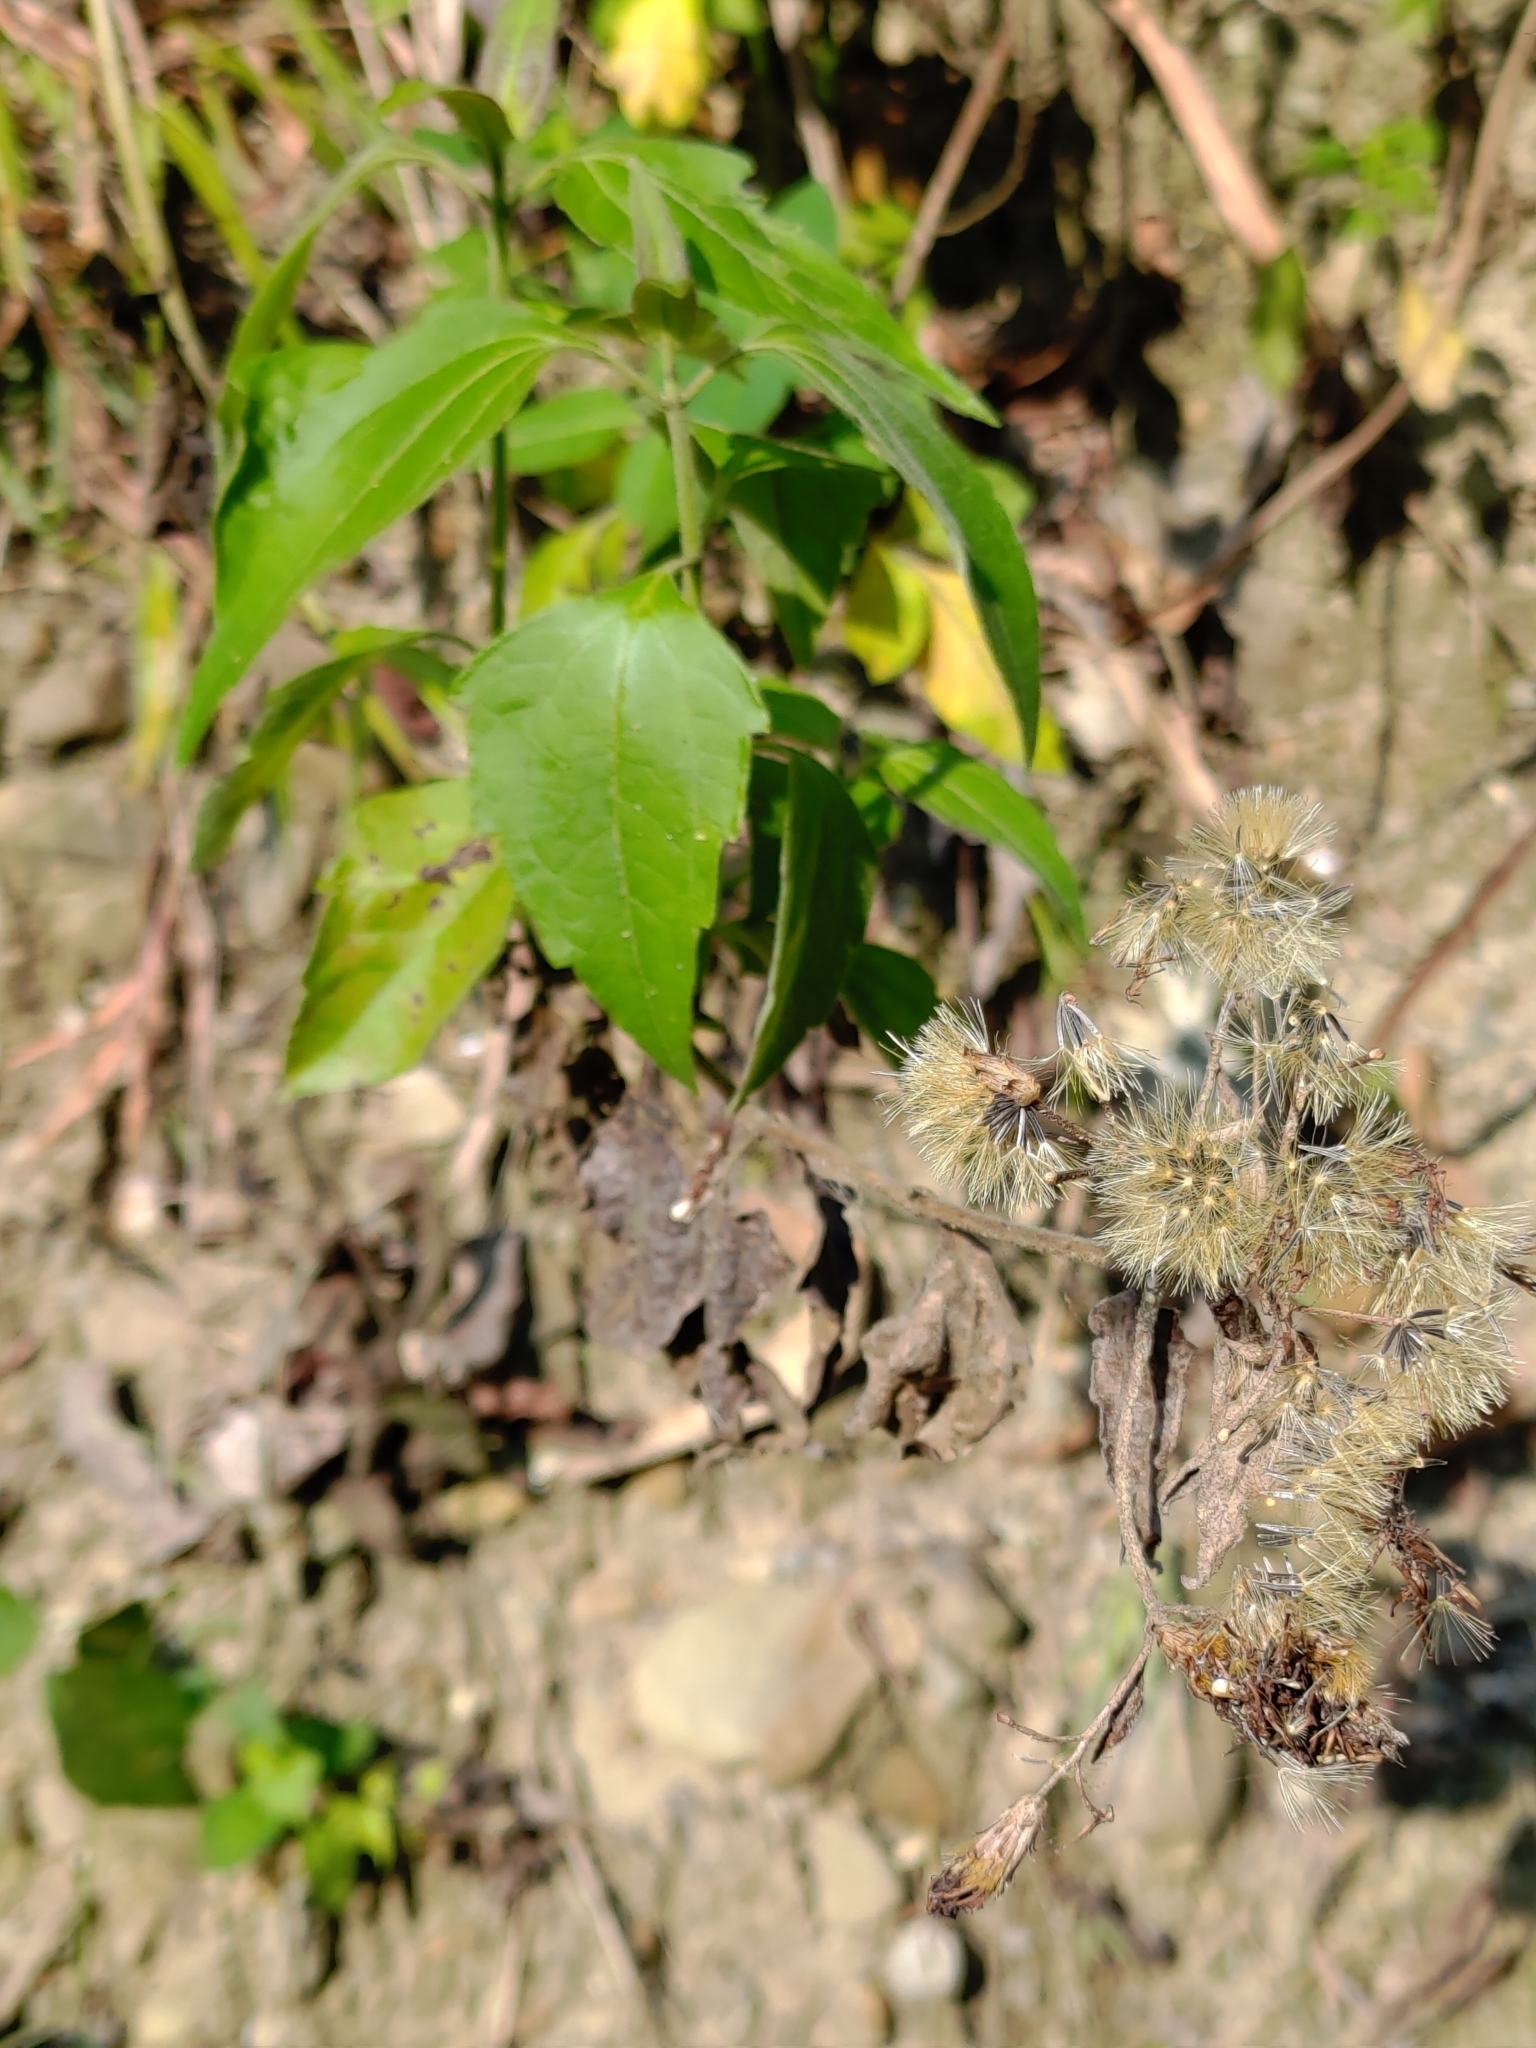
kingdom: Plantae
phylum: Tracheophyta
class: Magnoliopsida
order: Asterales
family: Asteraceae
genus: Chromolaena
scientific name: Chromolaena odorata
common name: Siamweed
